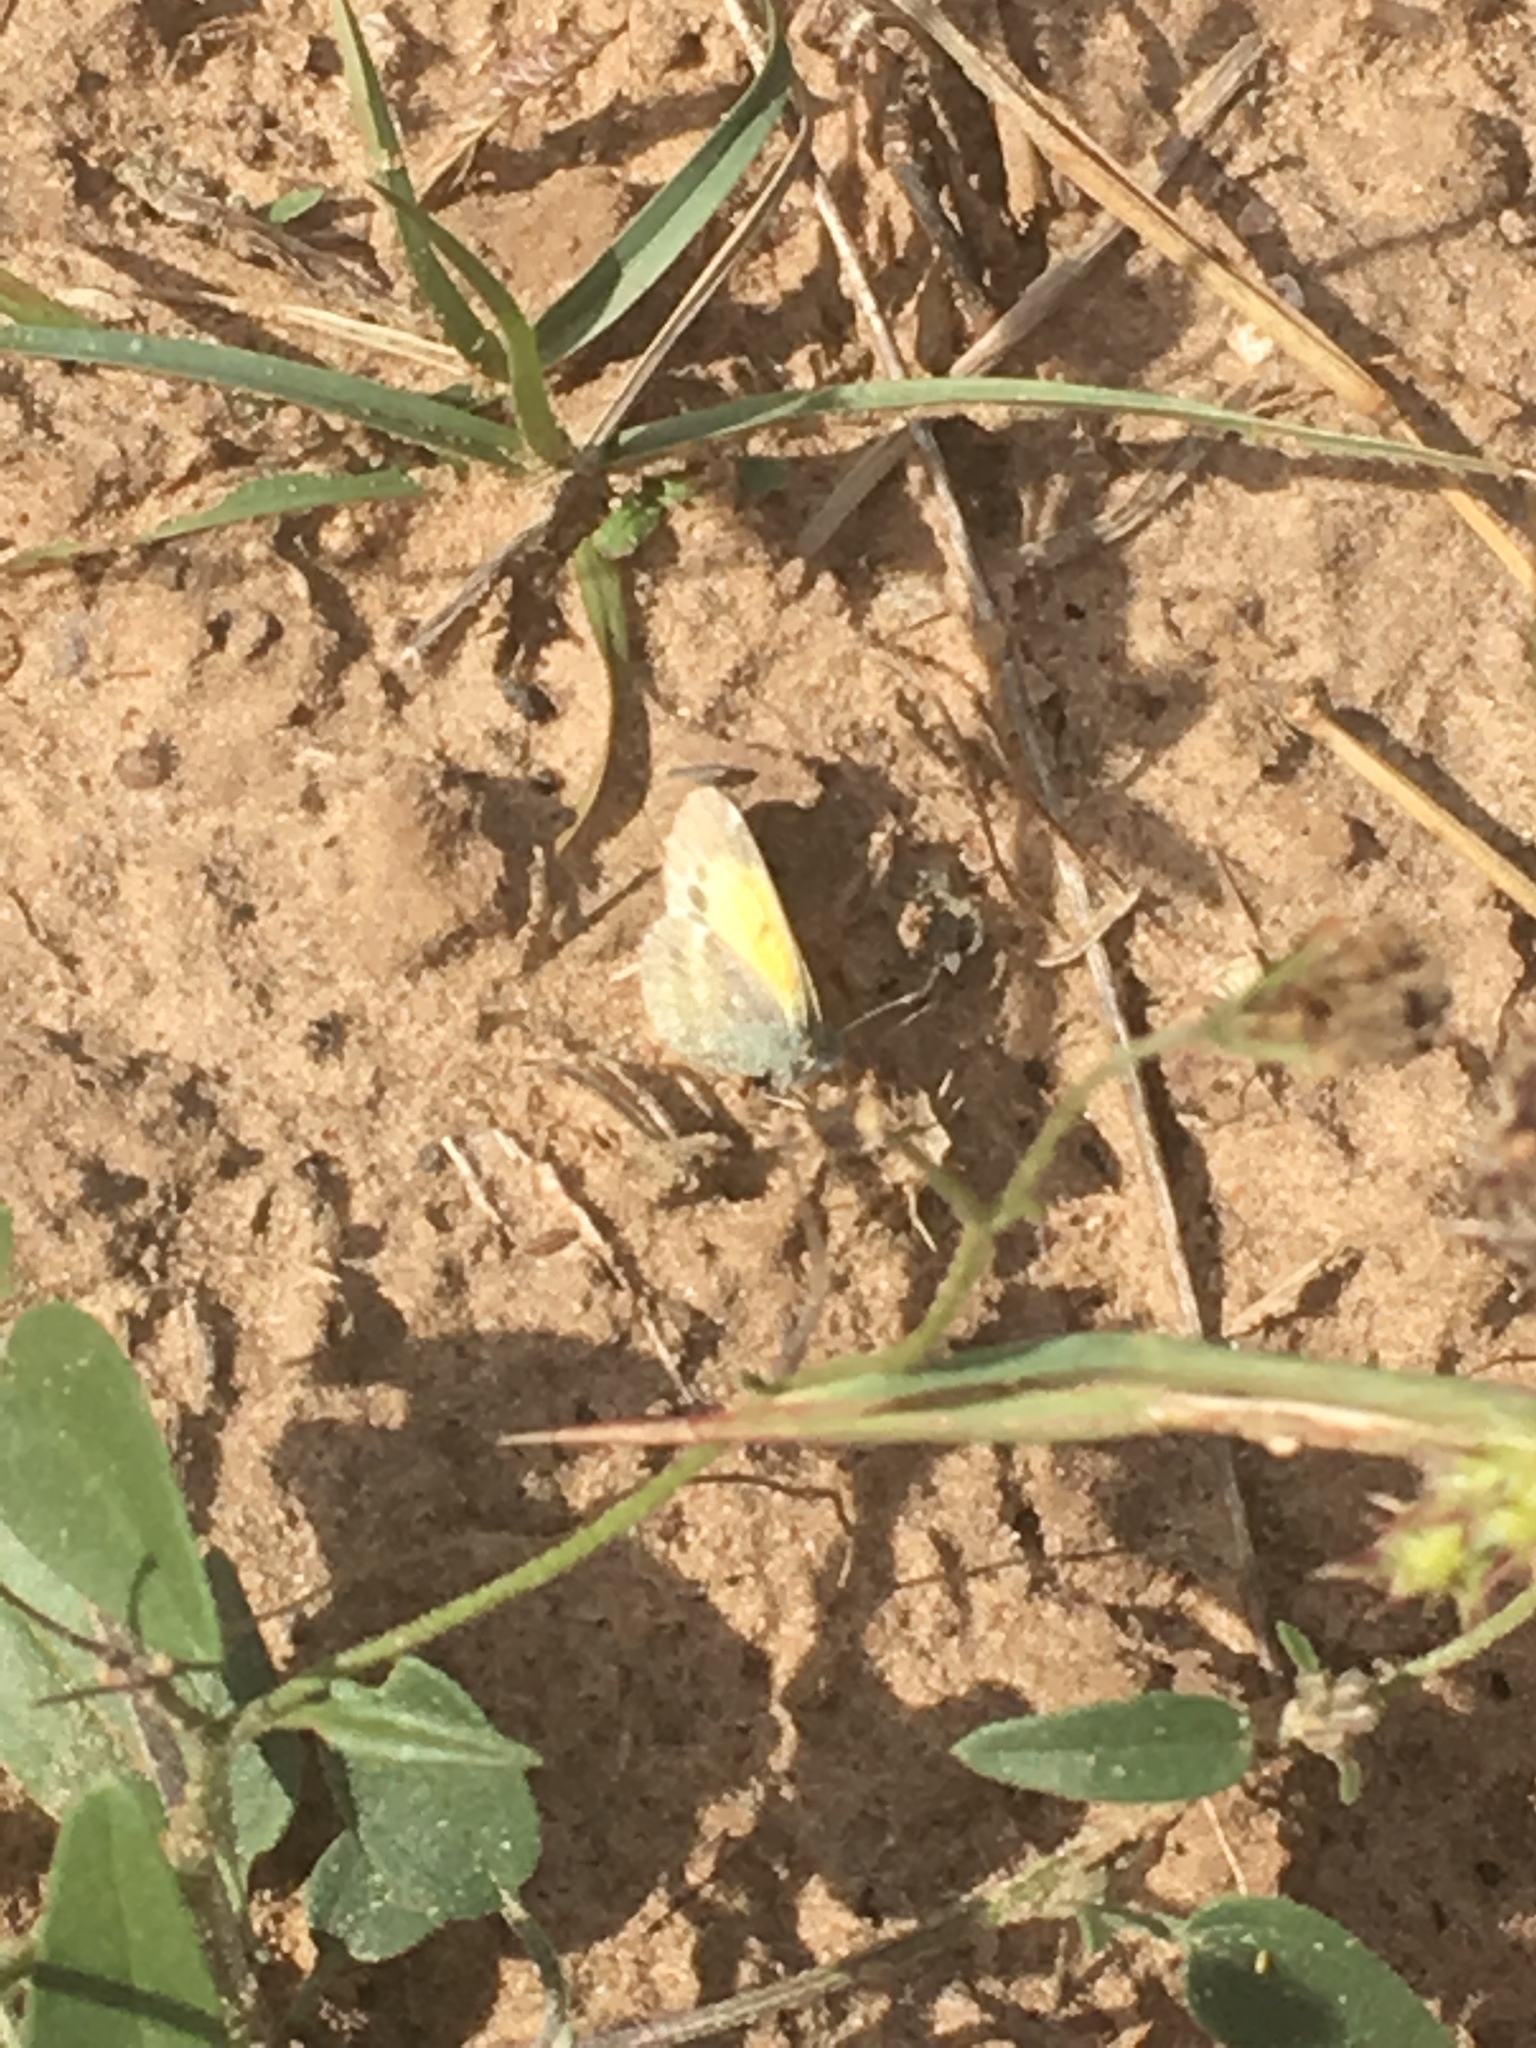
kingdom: Animalia
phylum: Arthropoda
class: Insecta
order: Lepidoptera
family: Pieridae
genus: Nathalis
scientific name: Nathalis iole
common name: Dainty sulphur
